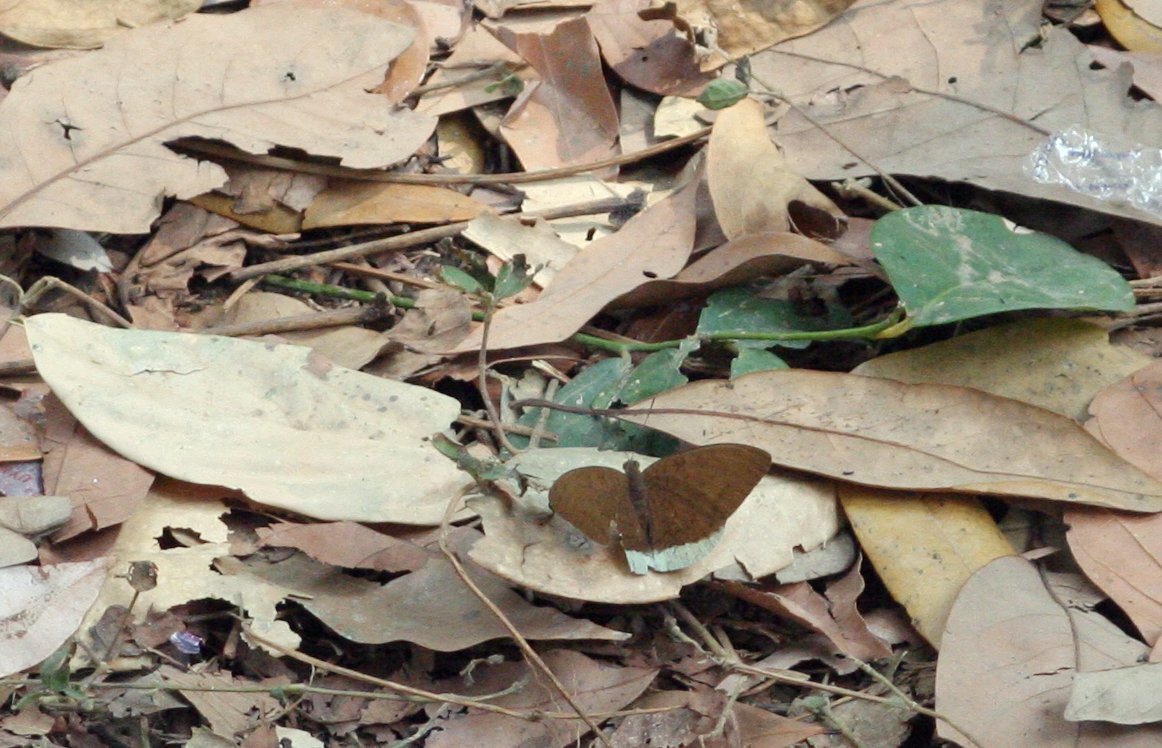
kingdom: Animalia
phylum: Arthropoda
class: Insecta
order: Lepidoptera
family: Nymphalidae
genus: Tanaecia
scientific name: Tanaecia julii
